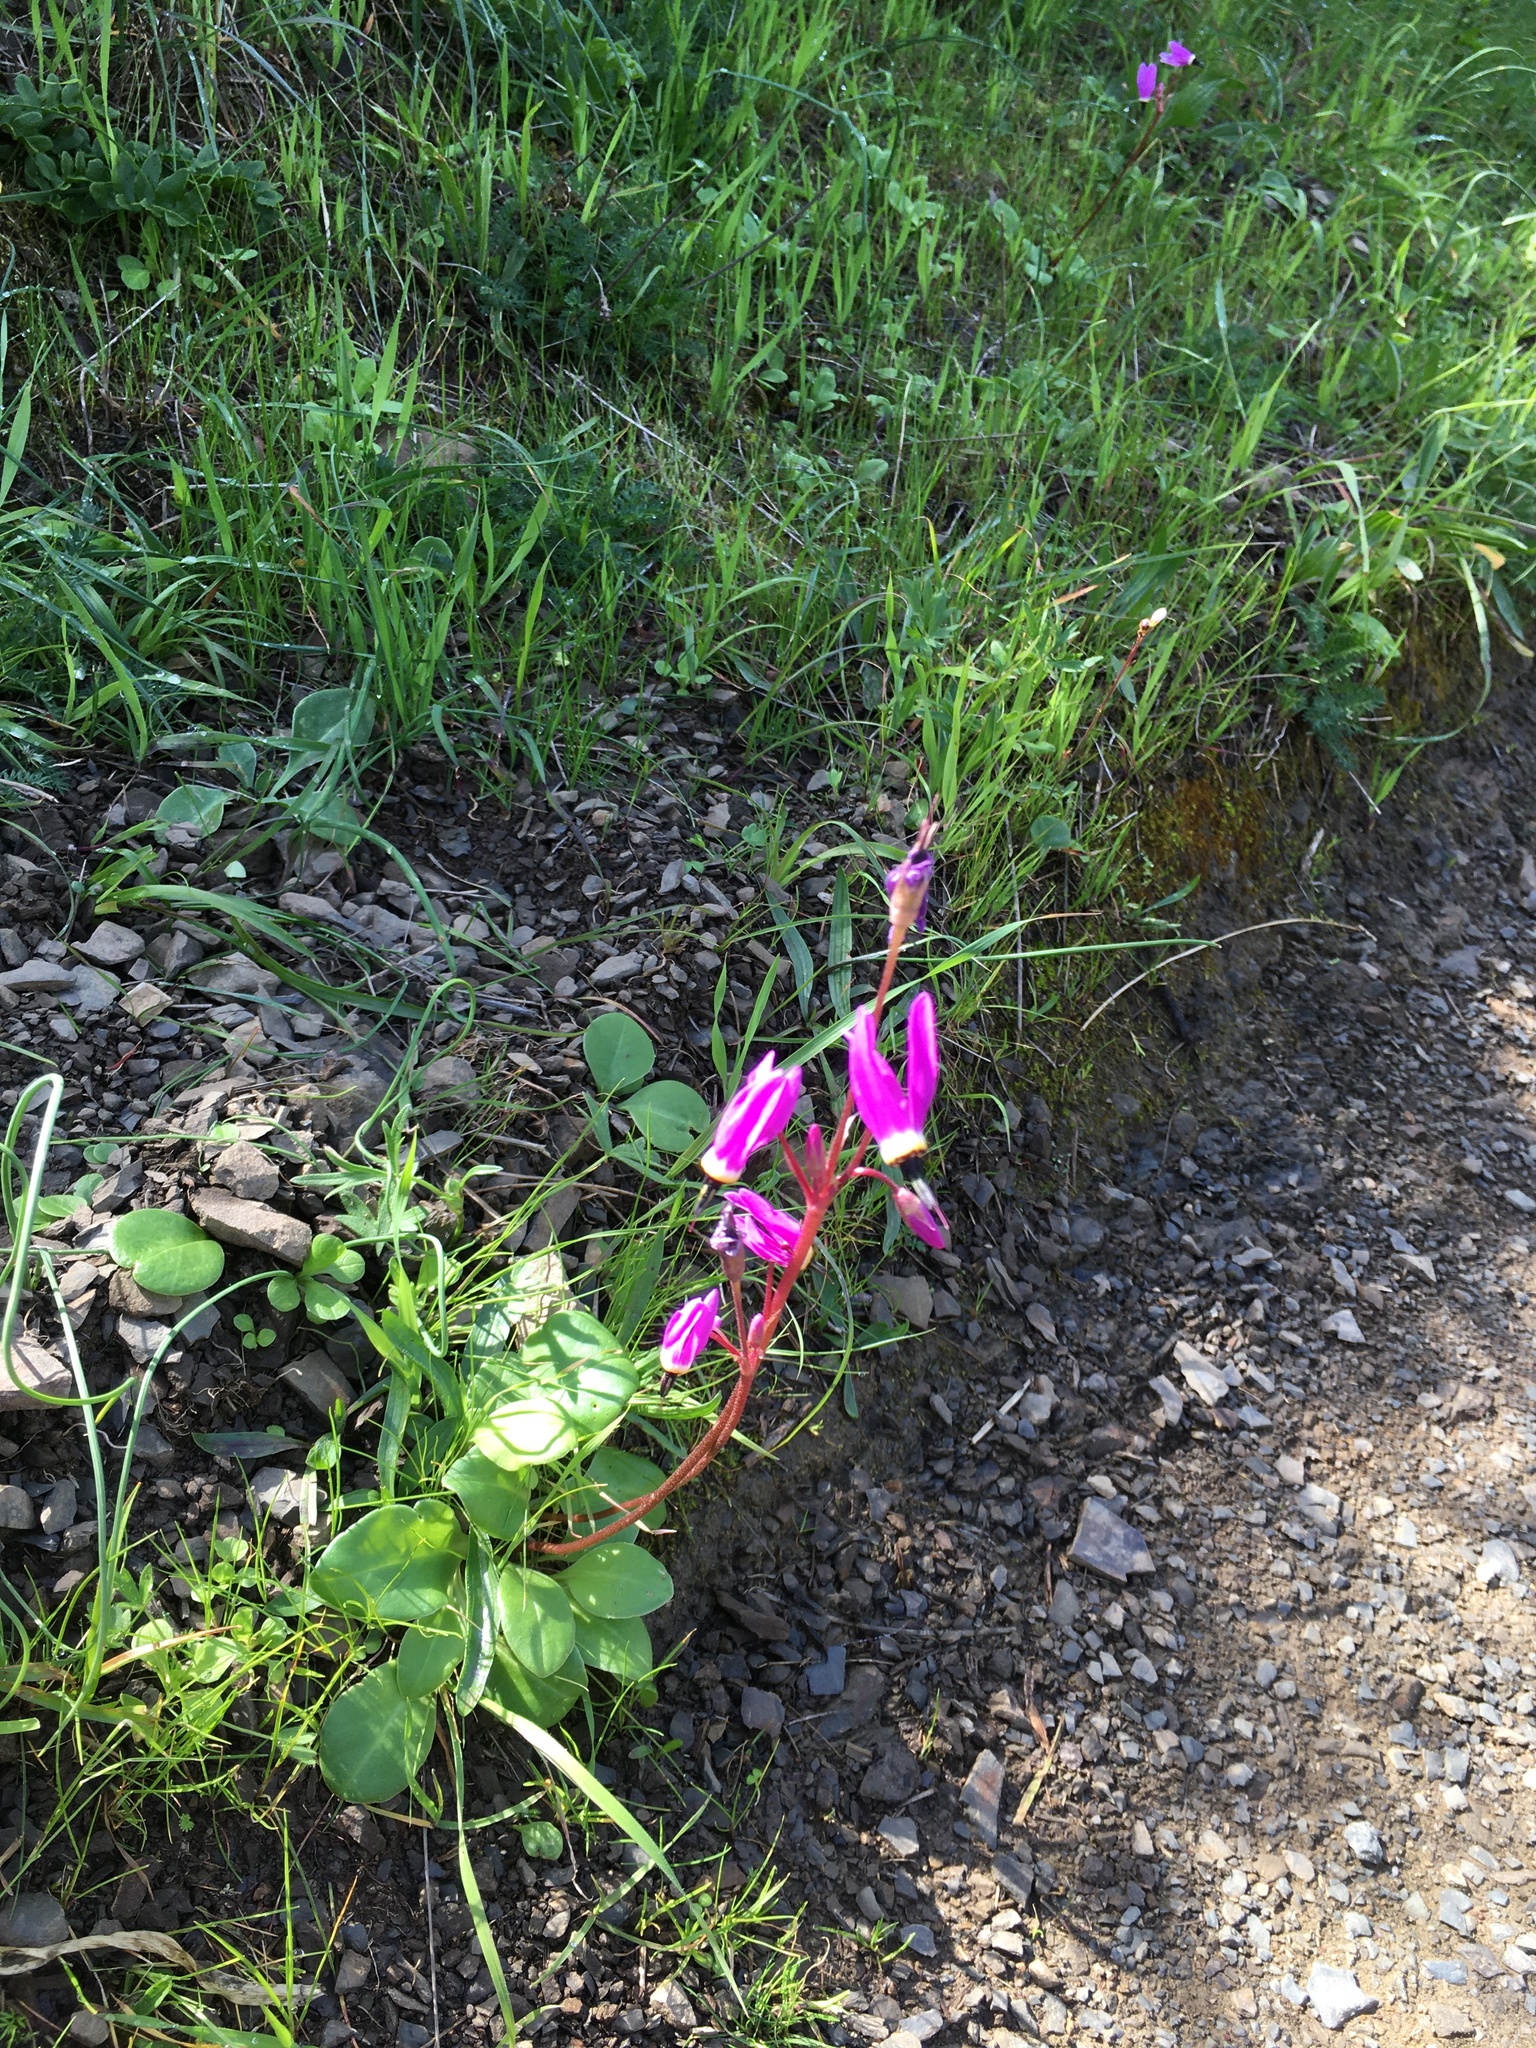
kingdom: Plantae
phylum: Tracheophyta
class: Magnoliopsida
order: Ericales
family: Primulaceae
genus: Dodecatheon
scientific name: Dodecatheon hendersonii
